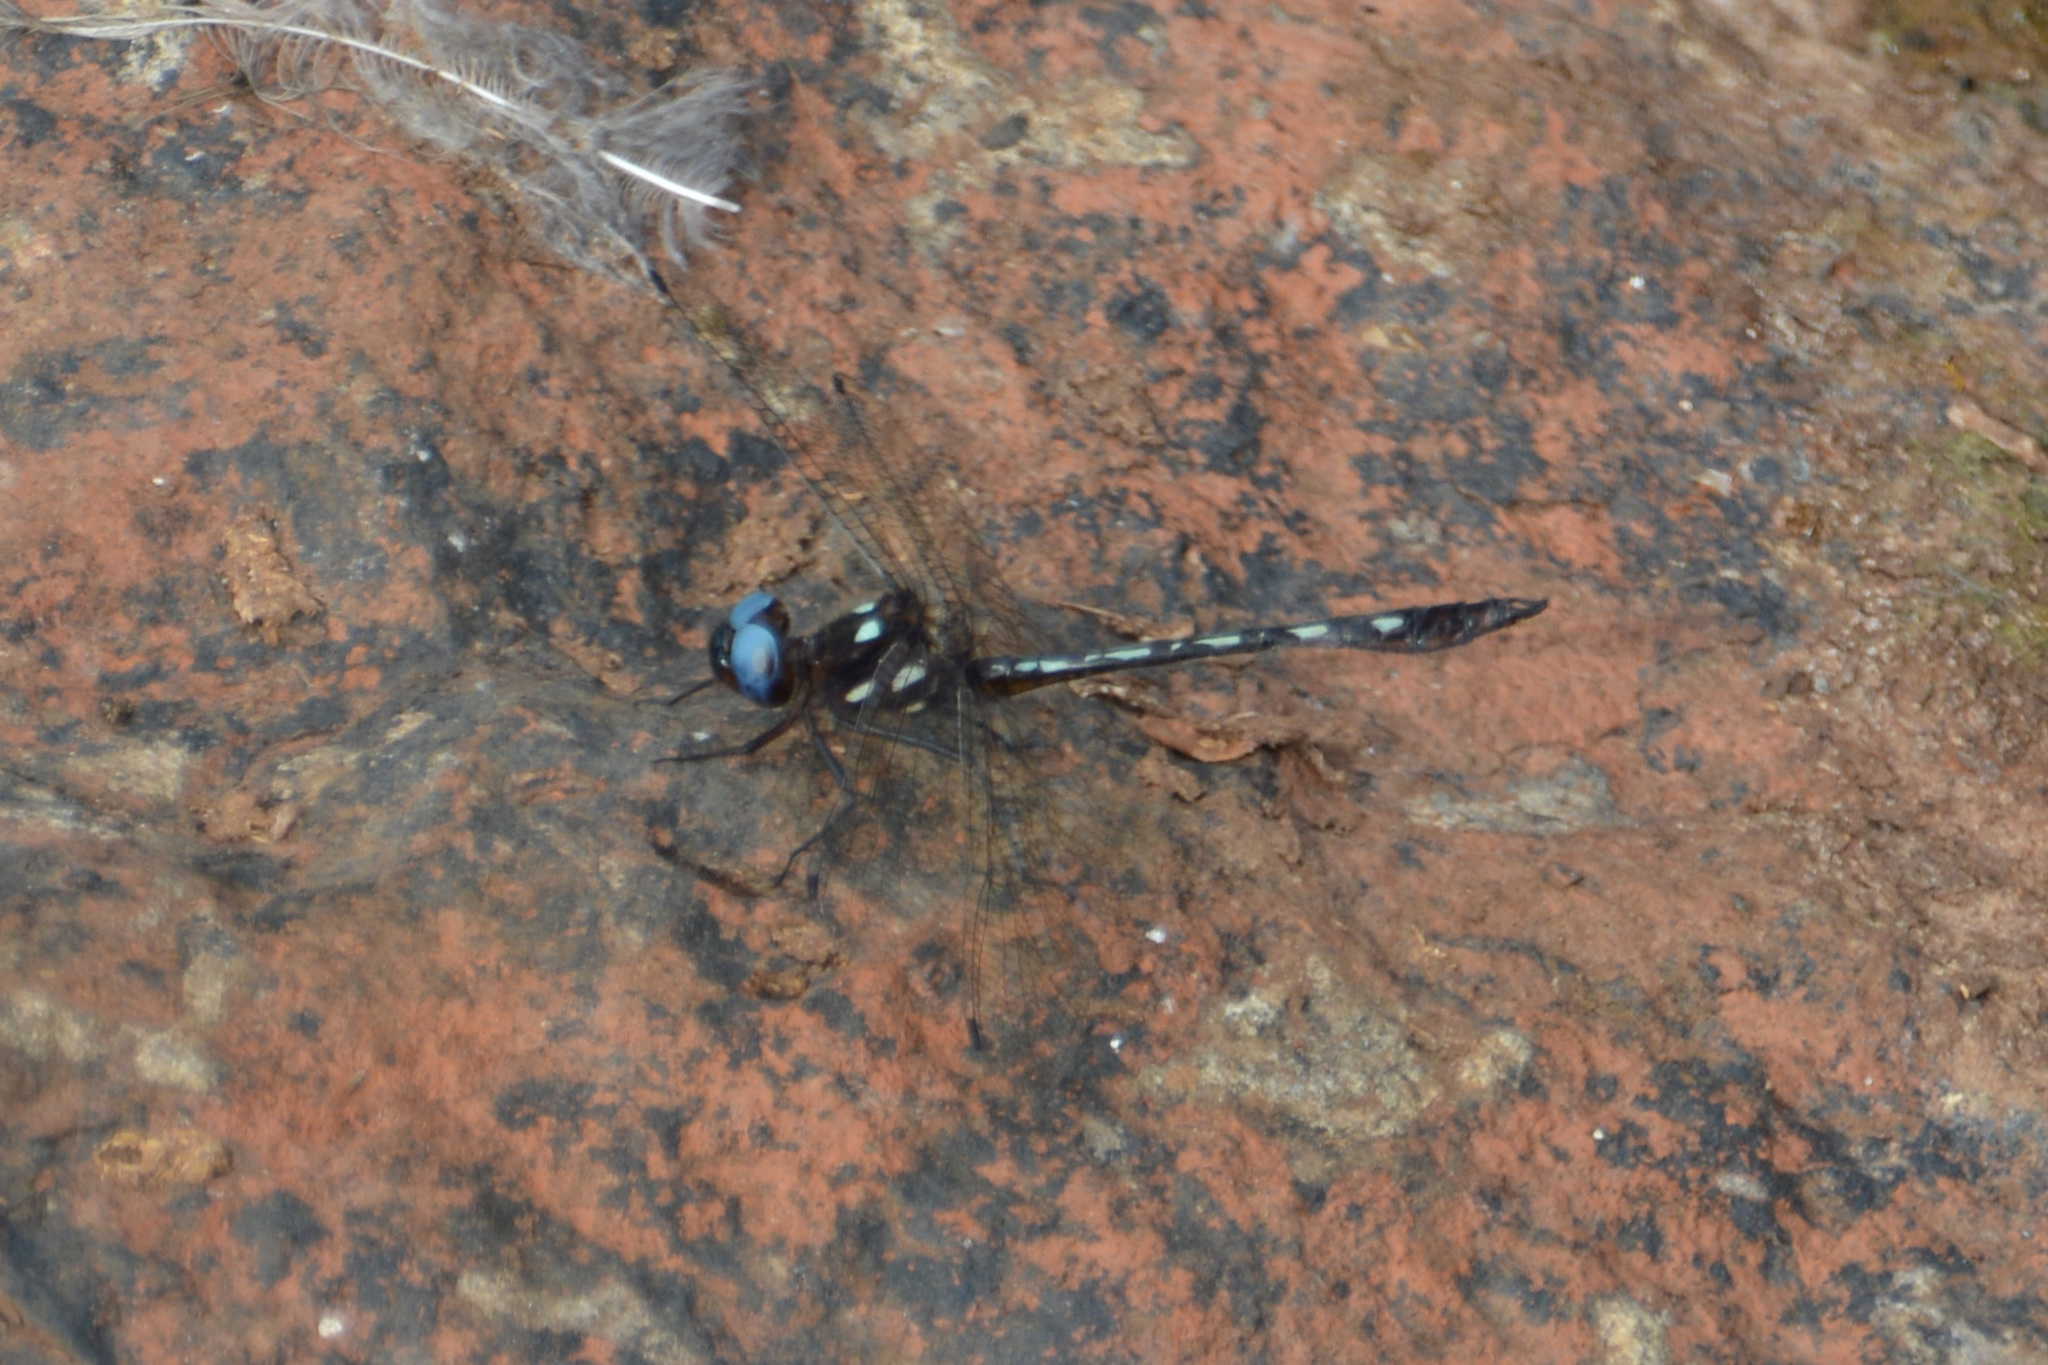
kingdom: Animalia
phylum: Arthropoda
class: Insecta
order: Odonata
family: Libellulidae
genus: Macrothemis
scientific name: Macrothemis imitans
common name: Ivory-striped sylph
